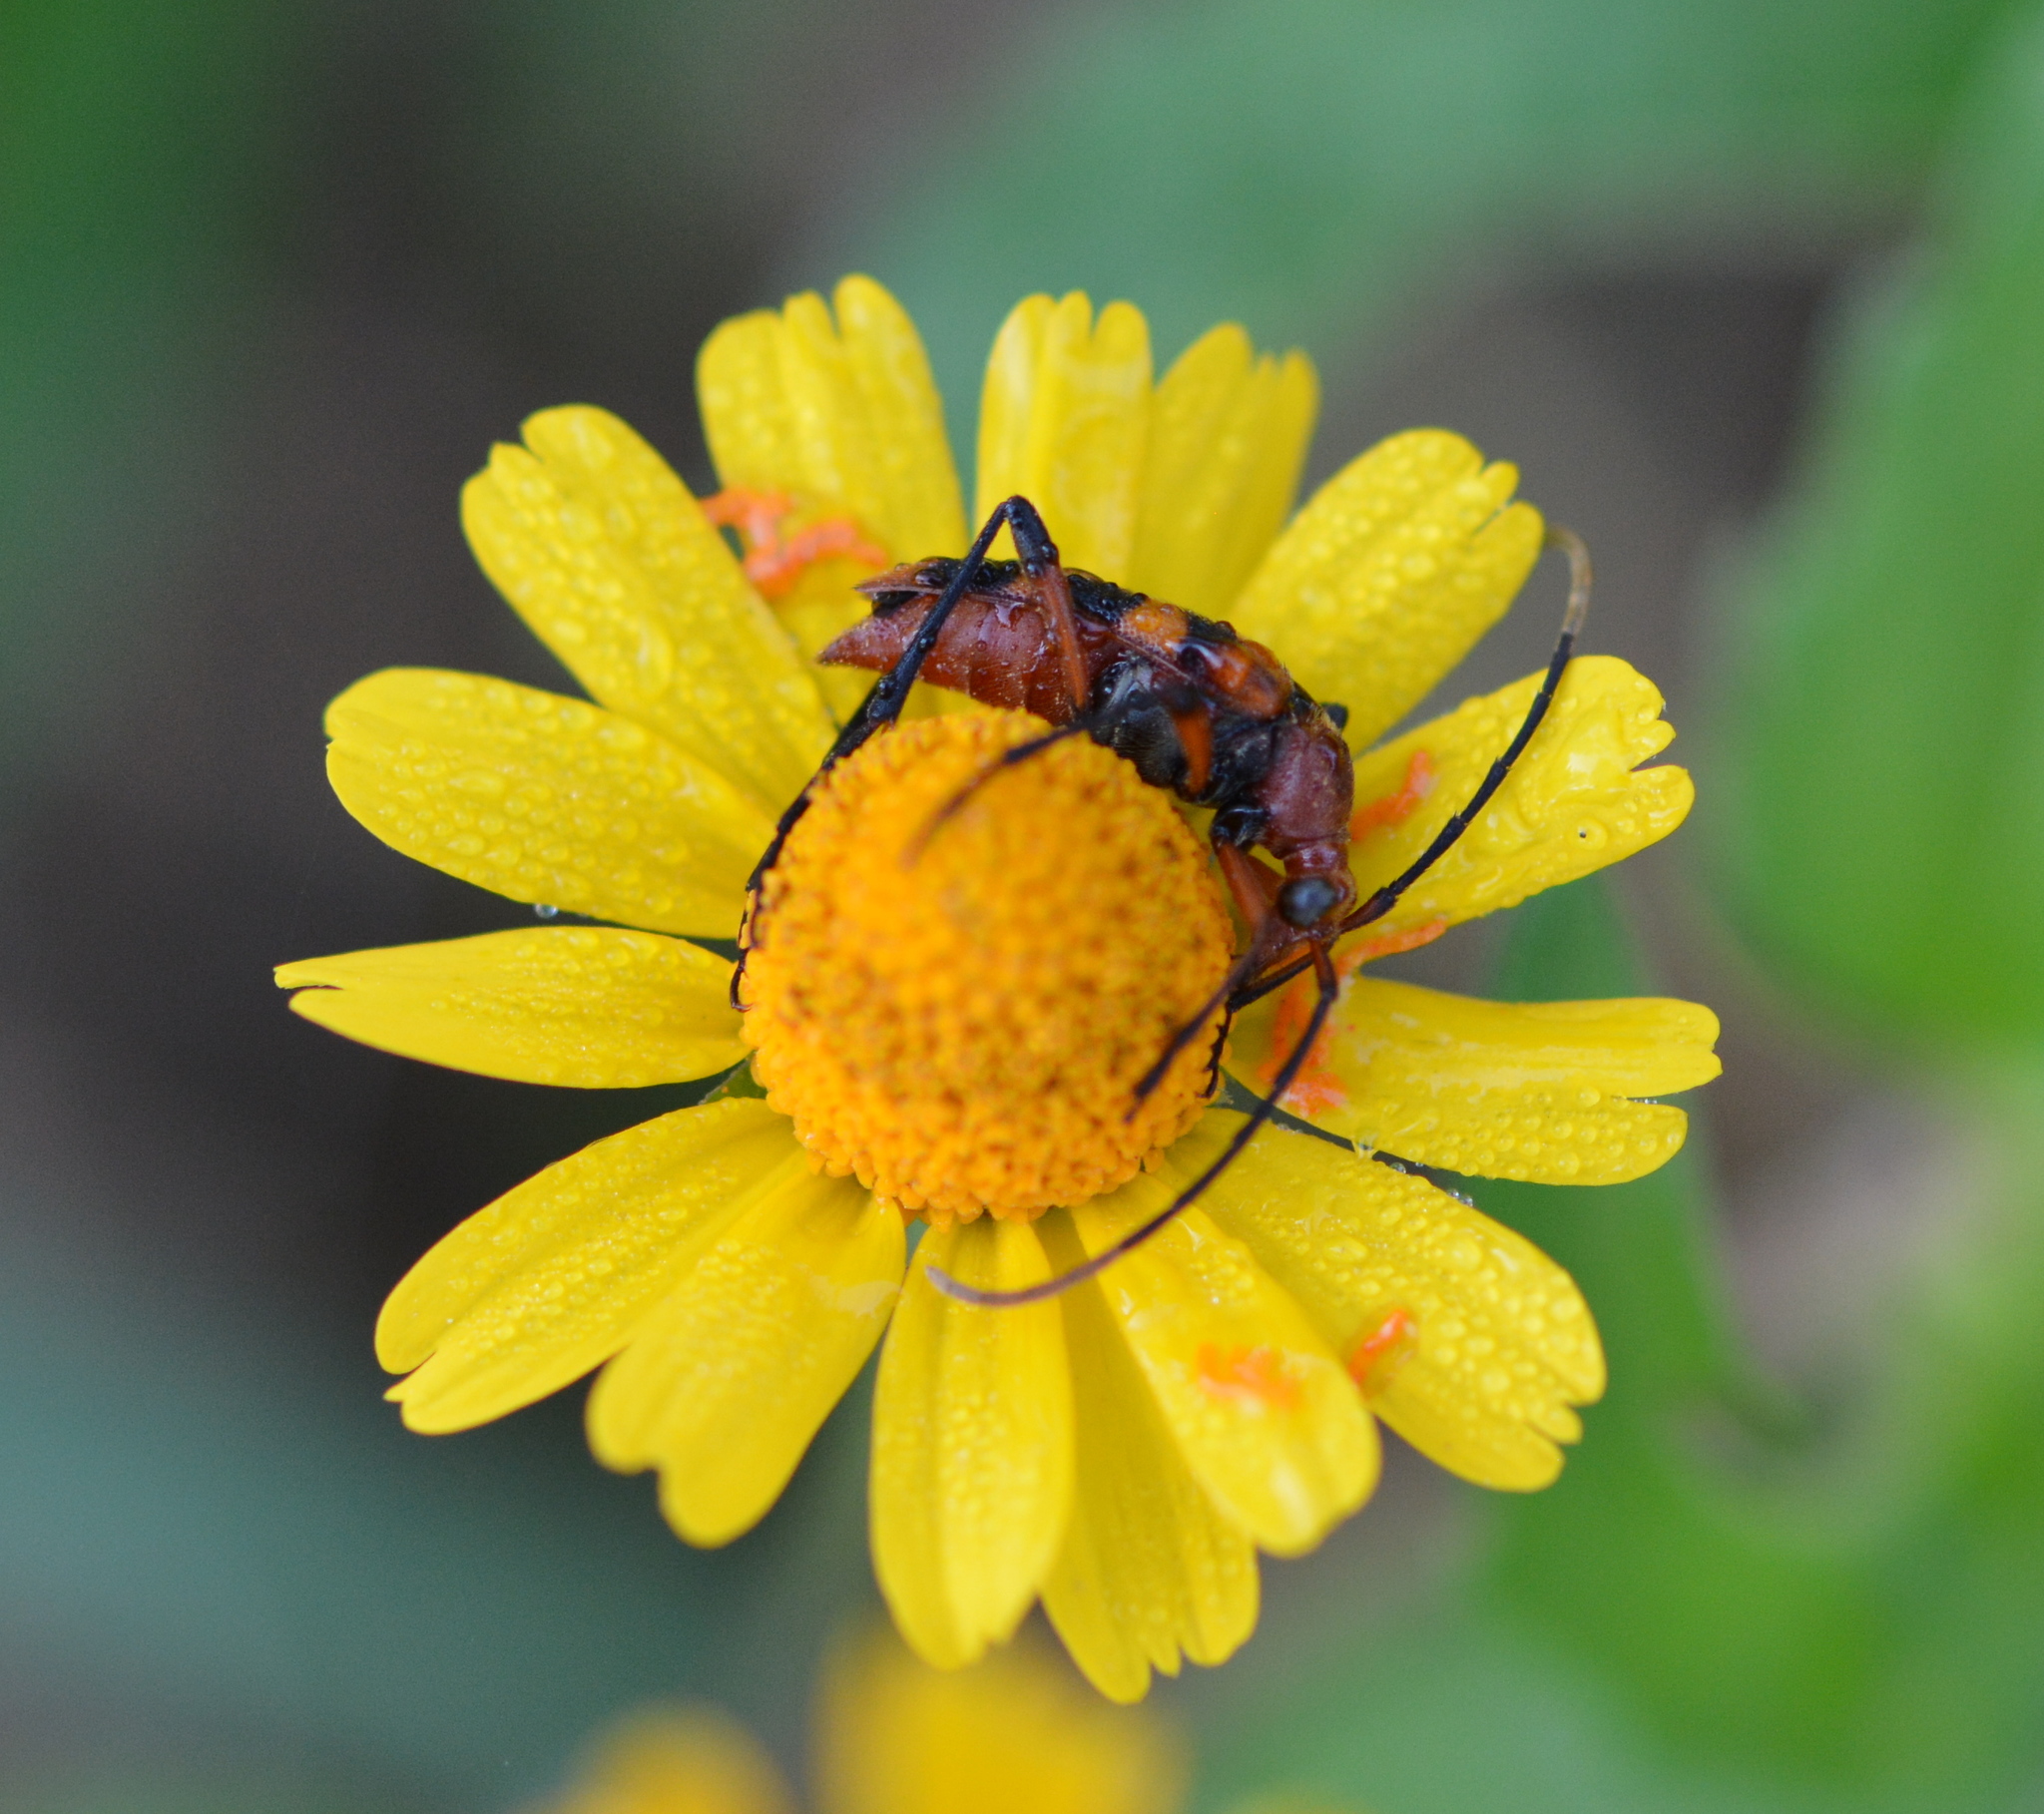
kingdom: Animalia
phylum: Arthropoda
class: Insecta
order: Coleoptera
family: Cerambycidae
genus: Strangalia
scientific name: Strangalia sexnotata
